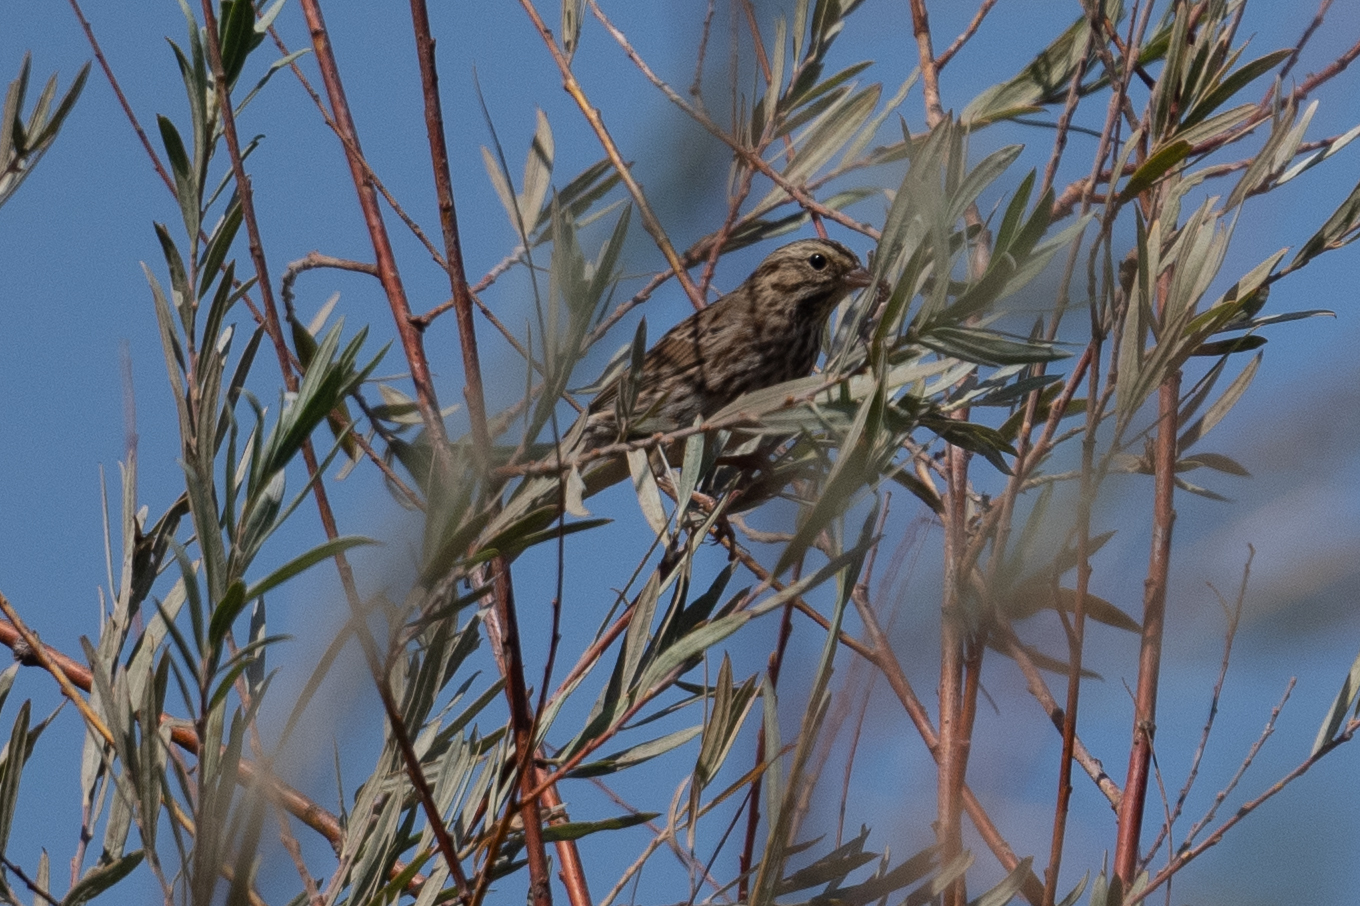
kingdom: Animalia
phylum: Chordata
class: Aves
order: Passeriformes
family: Passerellidae
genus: Passerculus
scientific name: Passerculus sandwichensis
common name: Savannah sparrow
